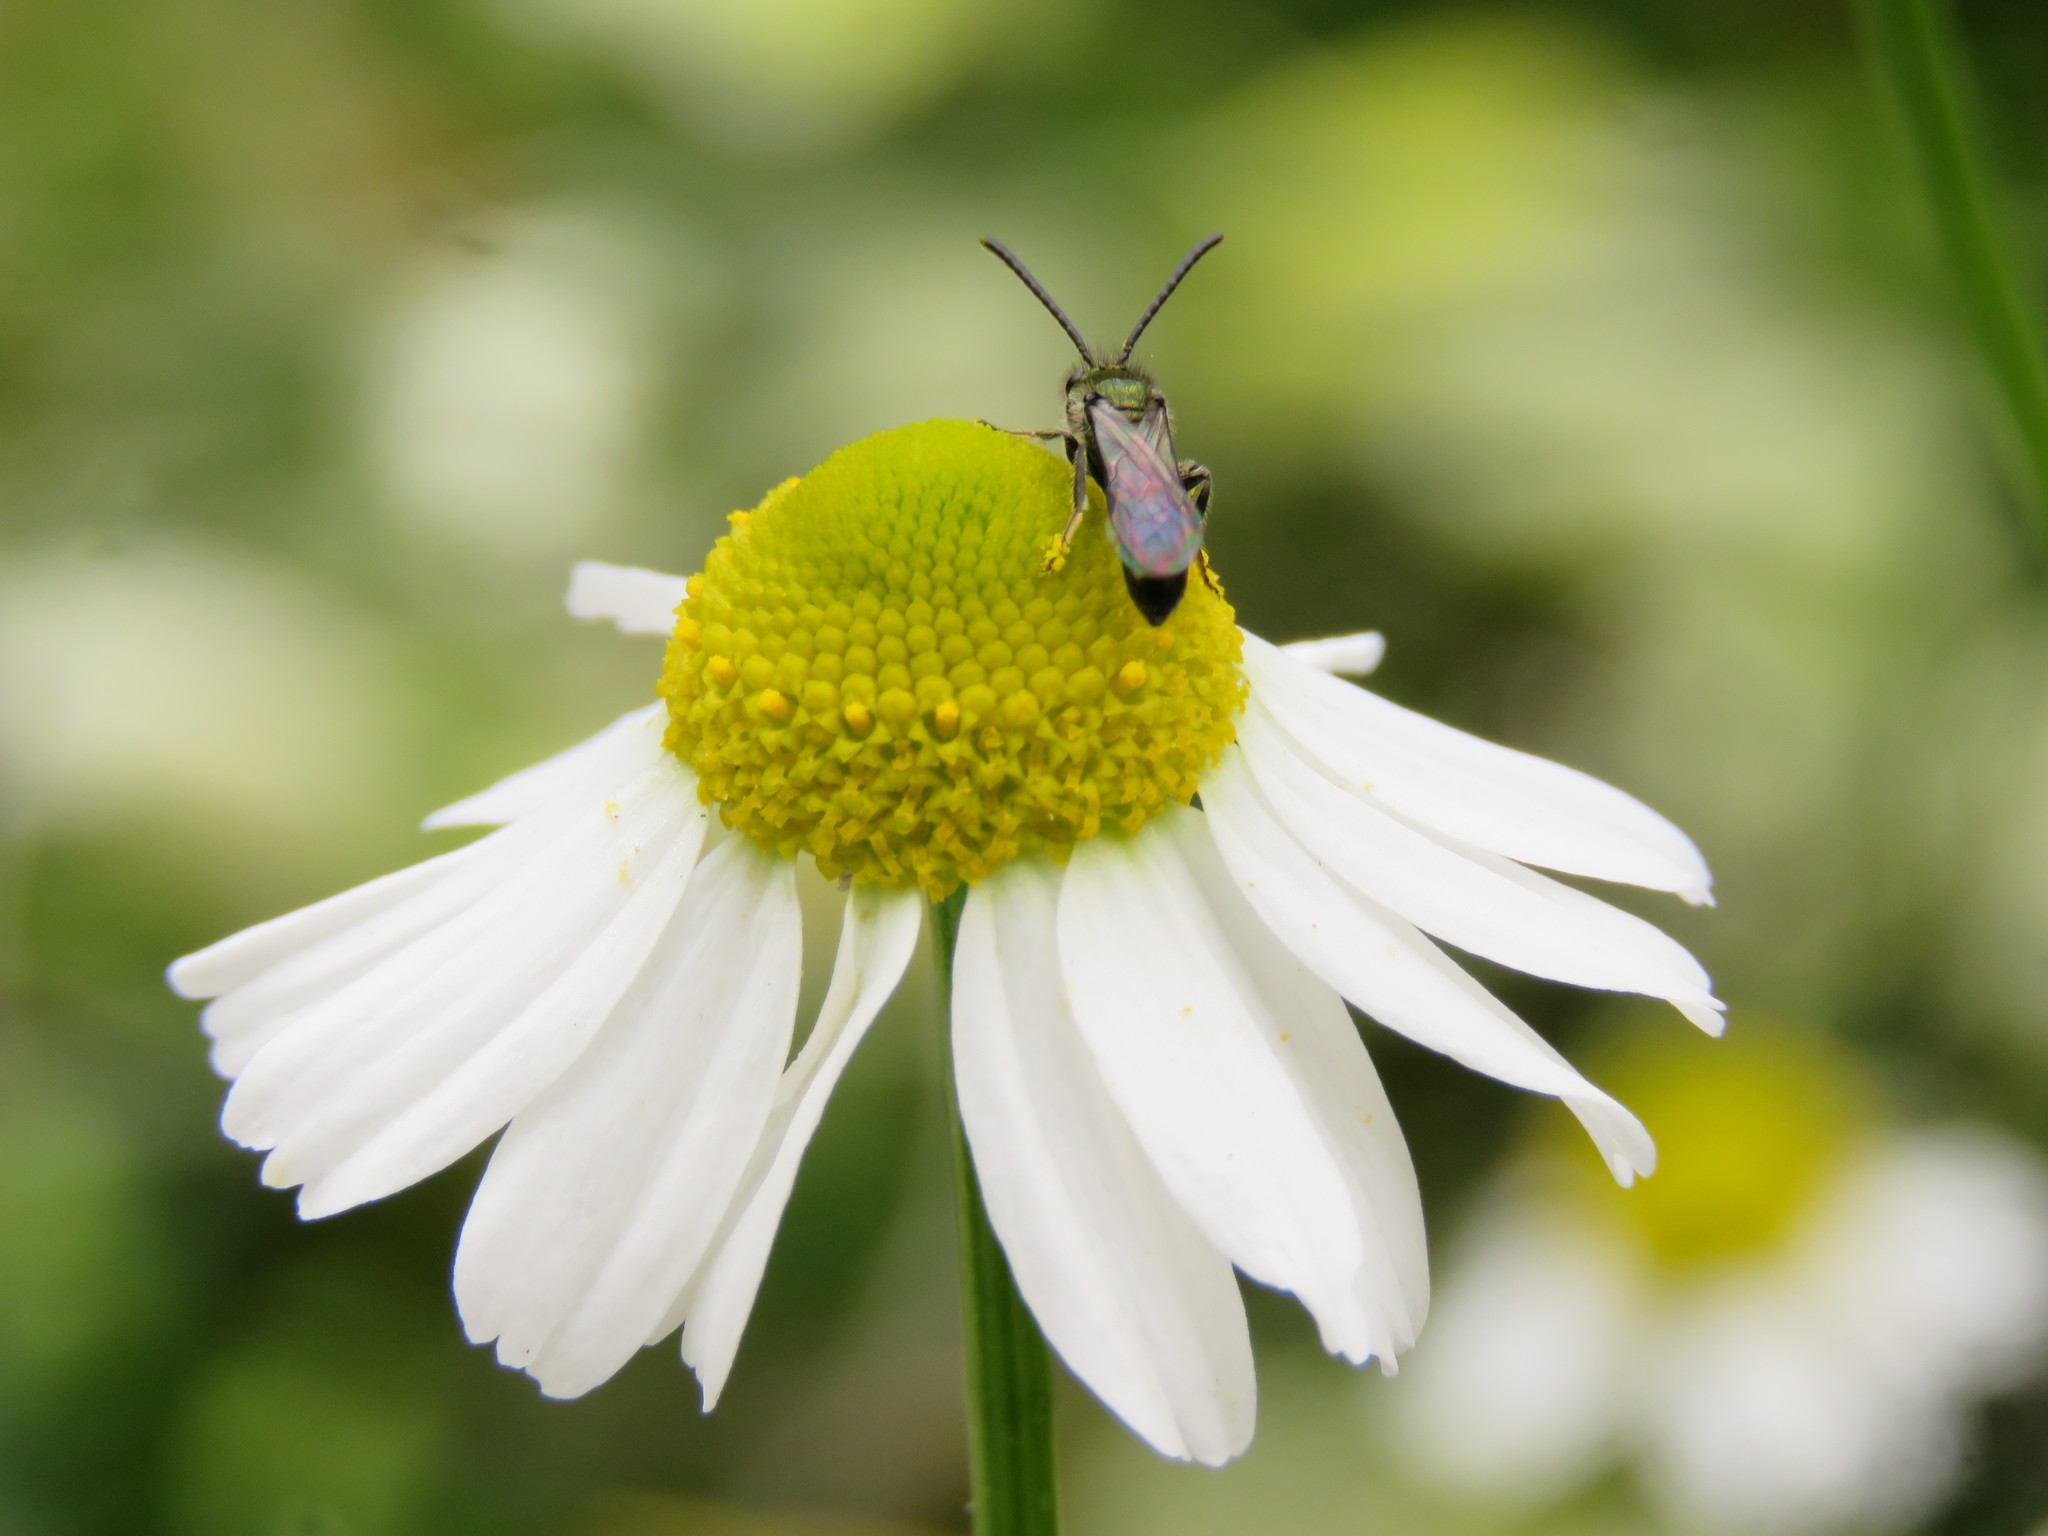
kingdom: Plantae
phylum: Tracheophyta
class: Magnoliopsida
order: Asterales
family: Asteraceae
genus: Matricaria
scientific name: Matricaria chamomilla
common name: Scented mayweed
